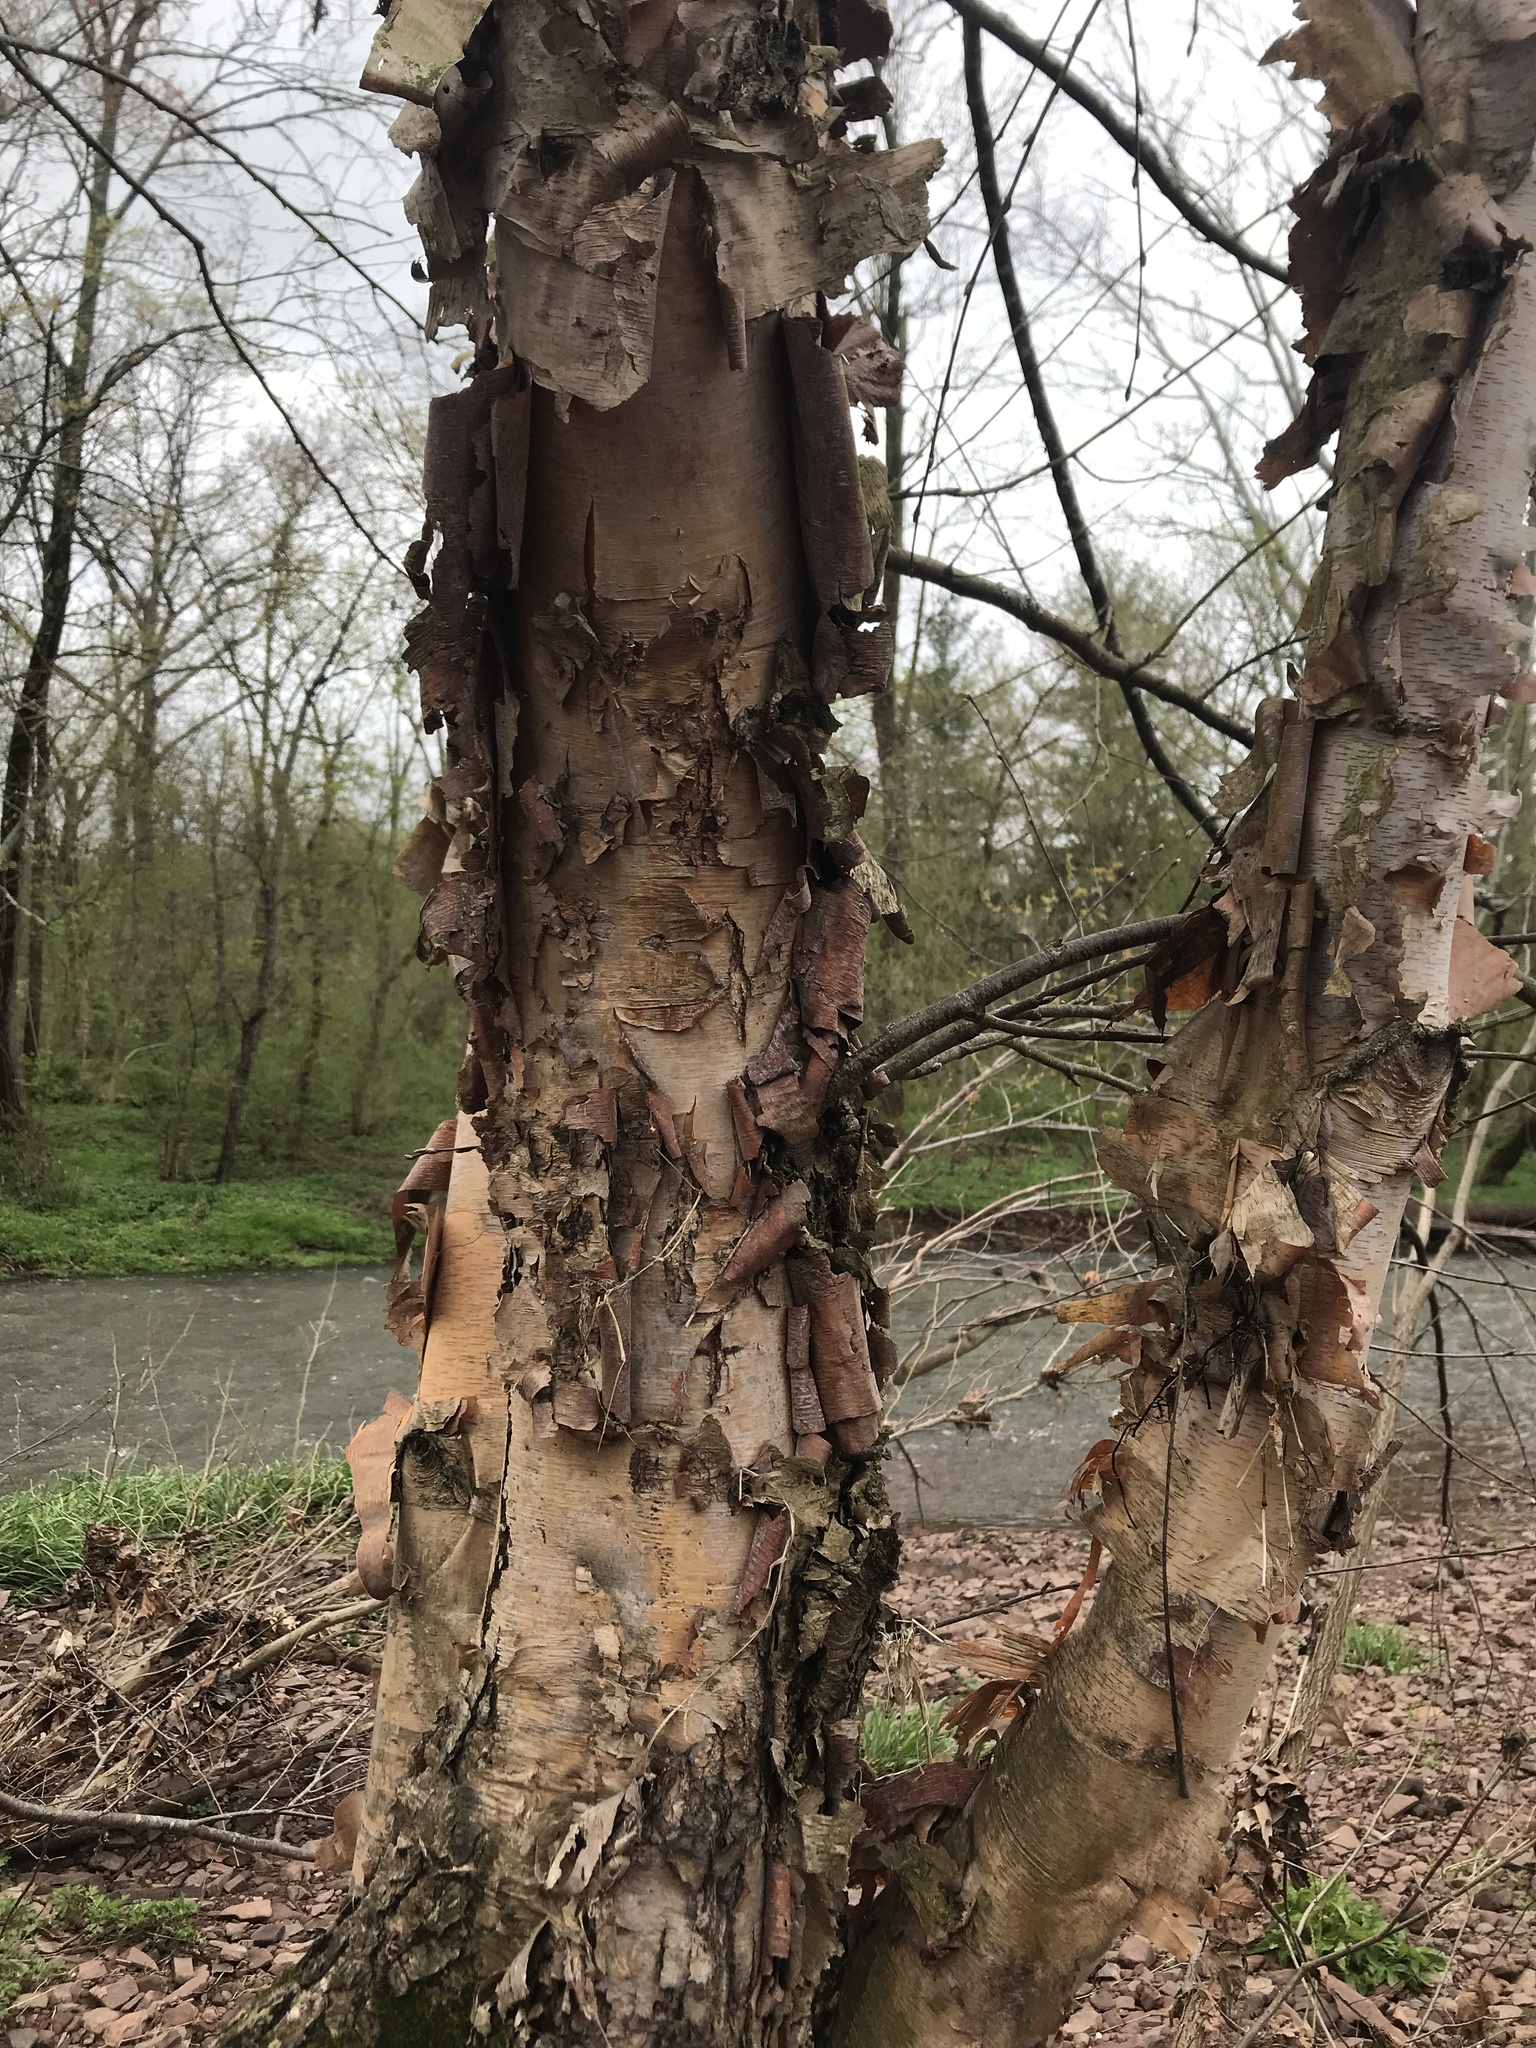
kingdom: Plantae
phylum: Tracheophyta
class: Magnoliopsida
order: Fagales
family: Betulaceae
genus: Betula
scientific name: Betula nigra
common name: Black birch
